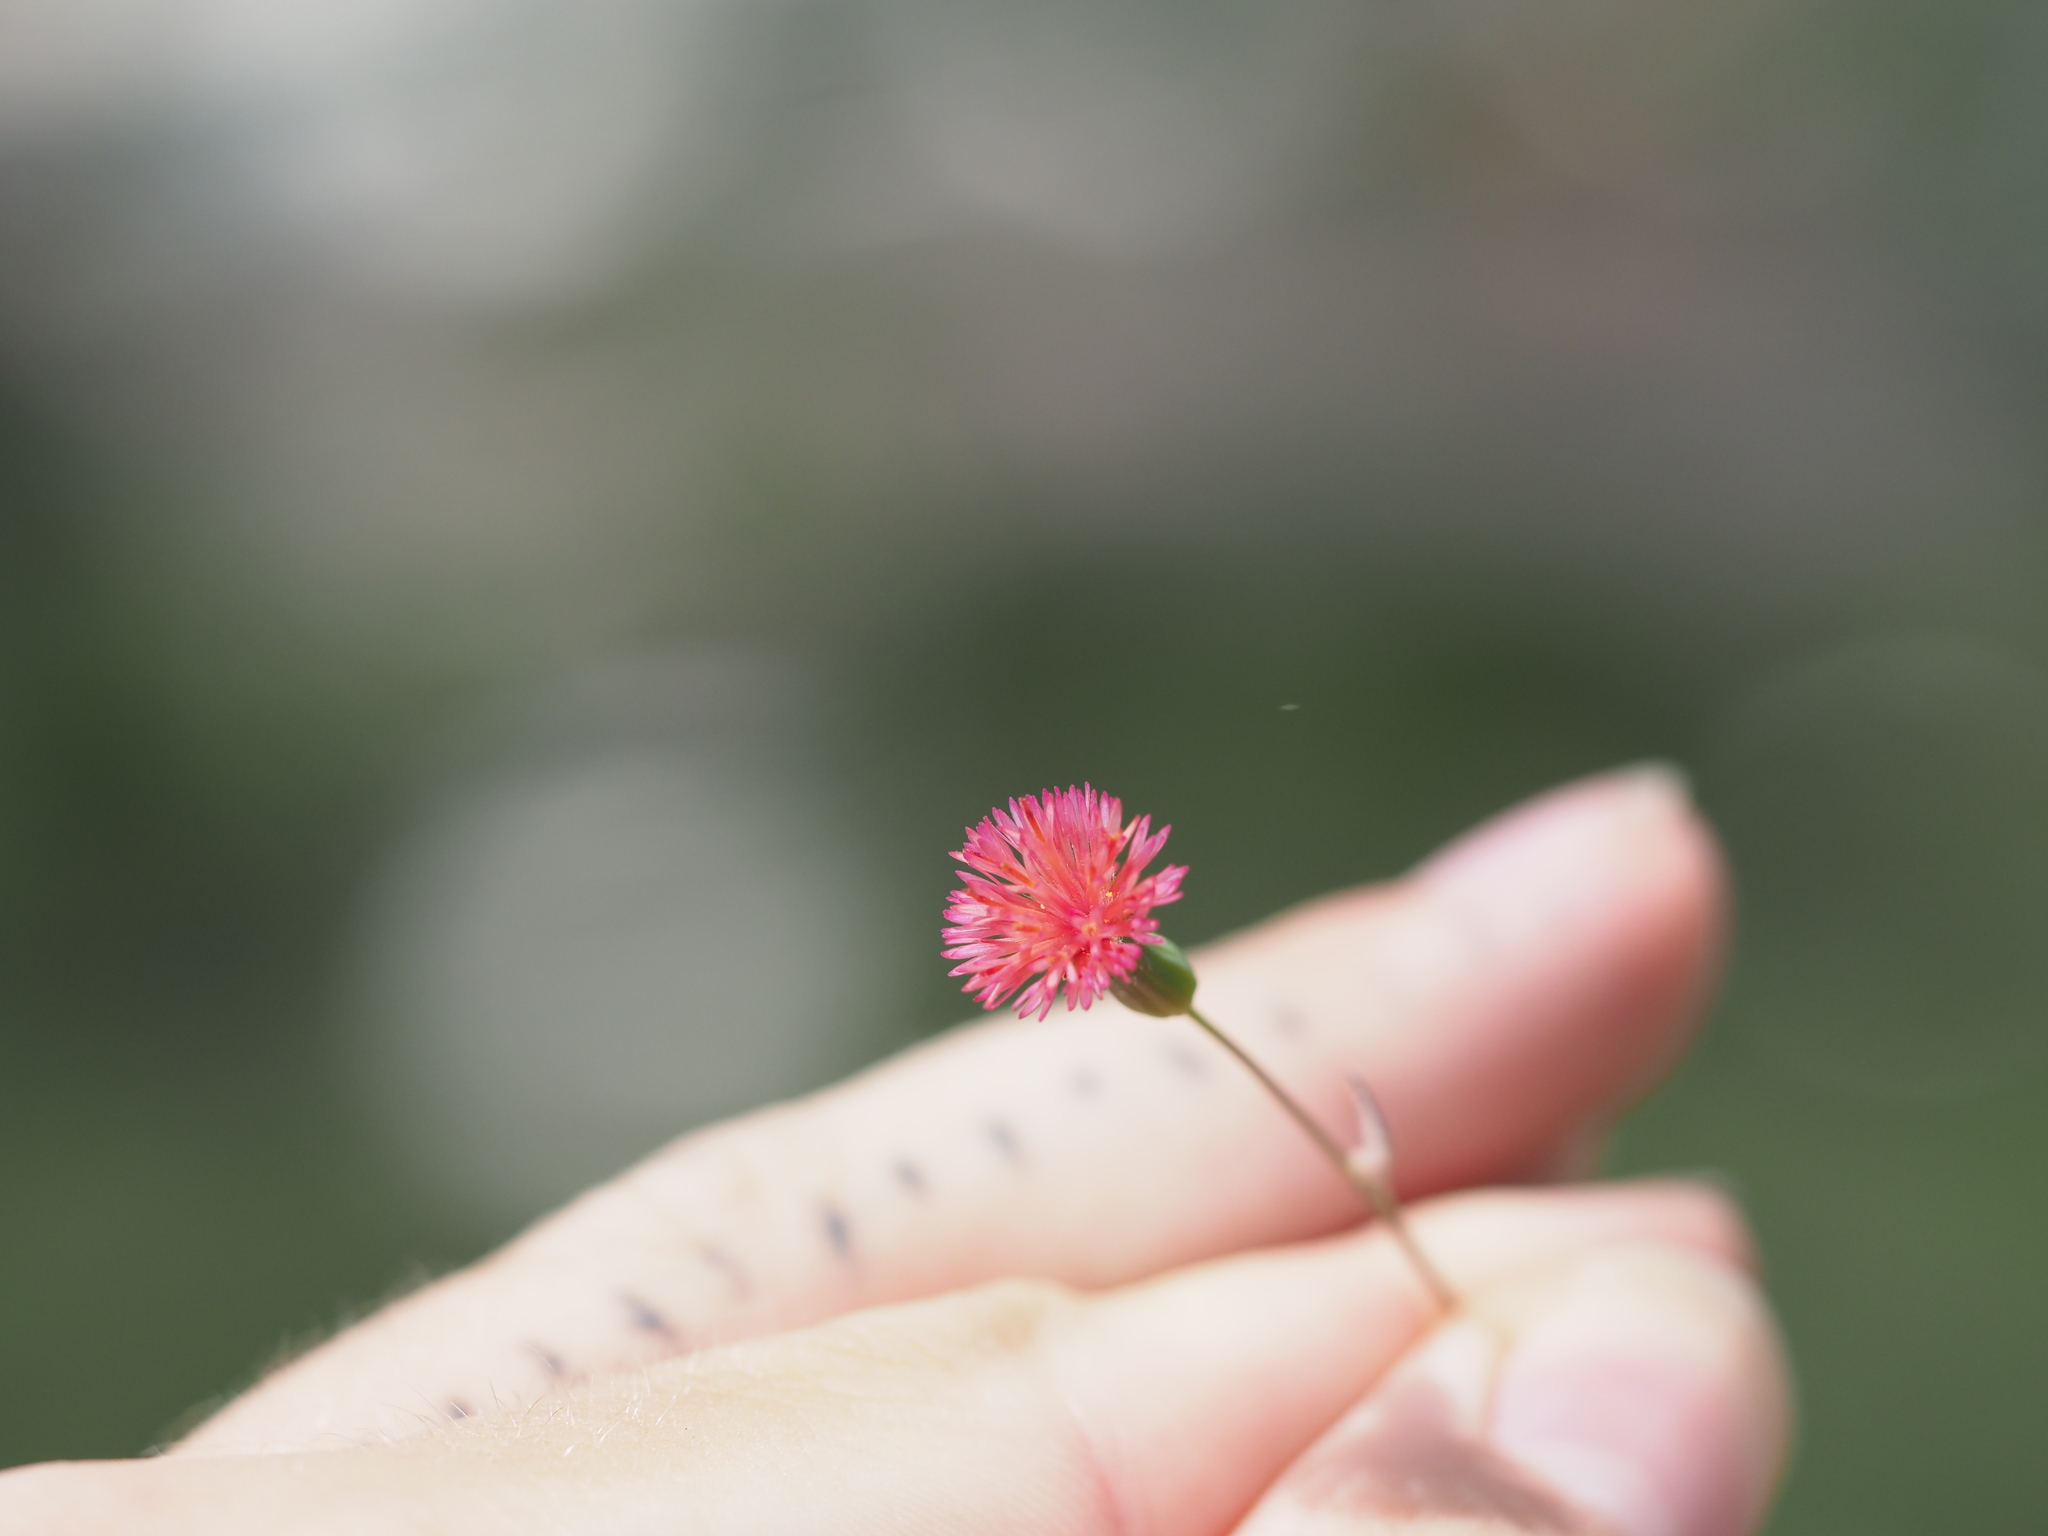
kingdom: Plantae
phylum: Tracheophyta
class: Magnoliopsida
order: Asterales
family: Asteraceae
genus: Emilia
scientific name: Emilia fosbergii
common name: Florida tasselflower
